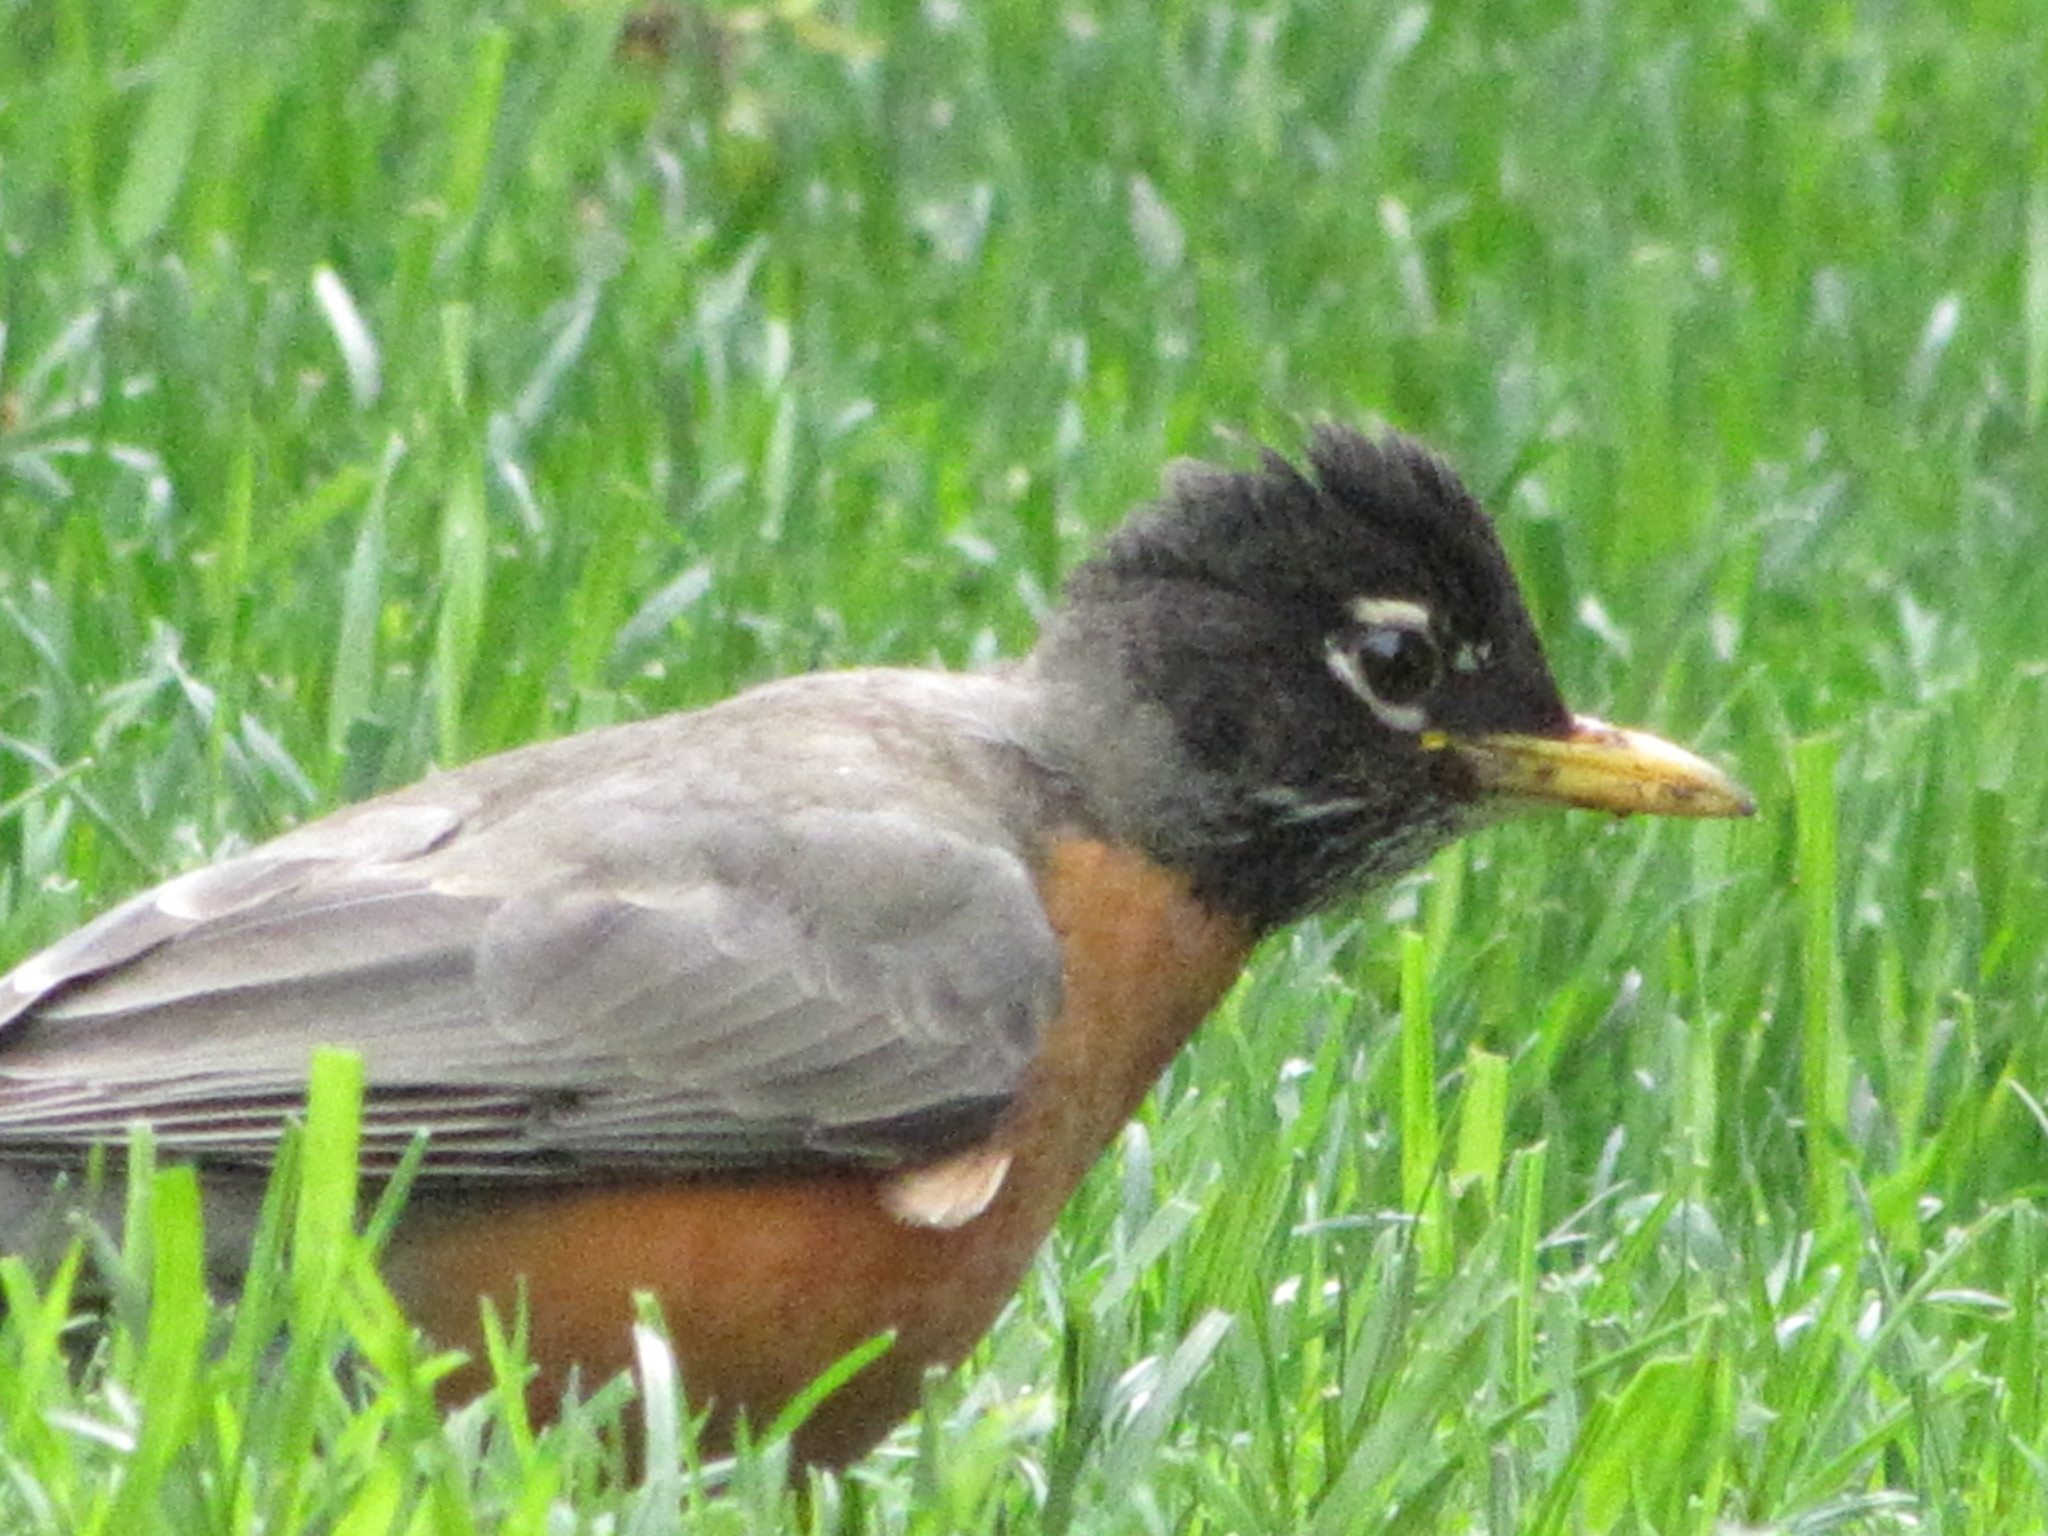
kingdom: Animalia
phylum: Chordata
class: Aves
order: Passeriformes
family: Turdidae
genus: Turdus
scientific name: Turdus migratorius
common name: American robin
